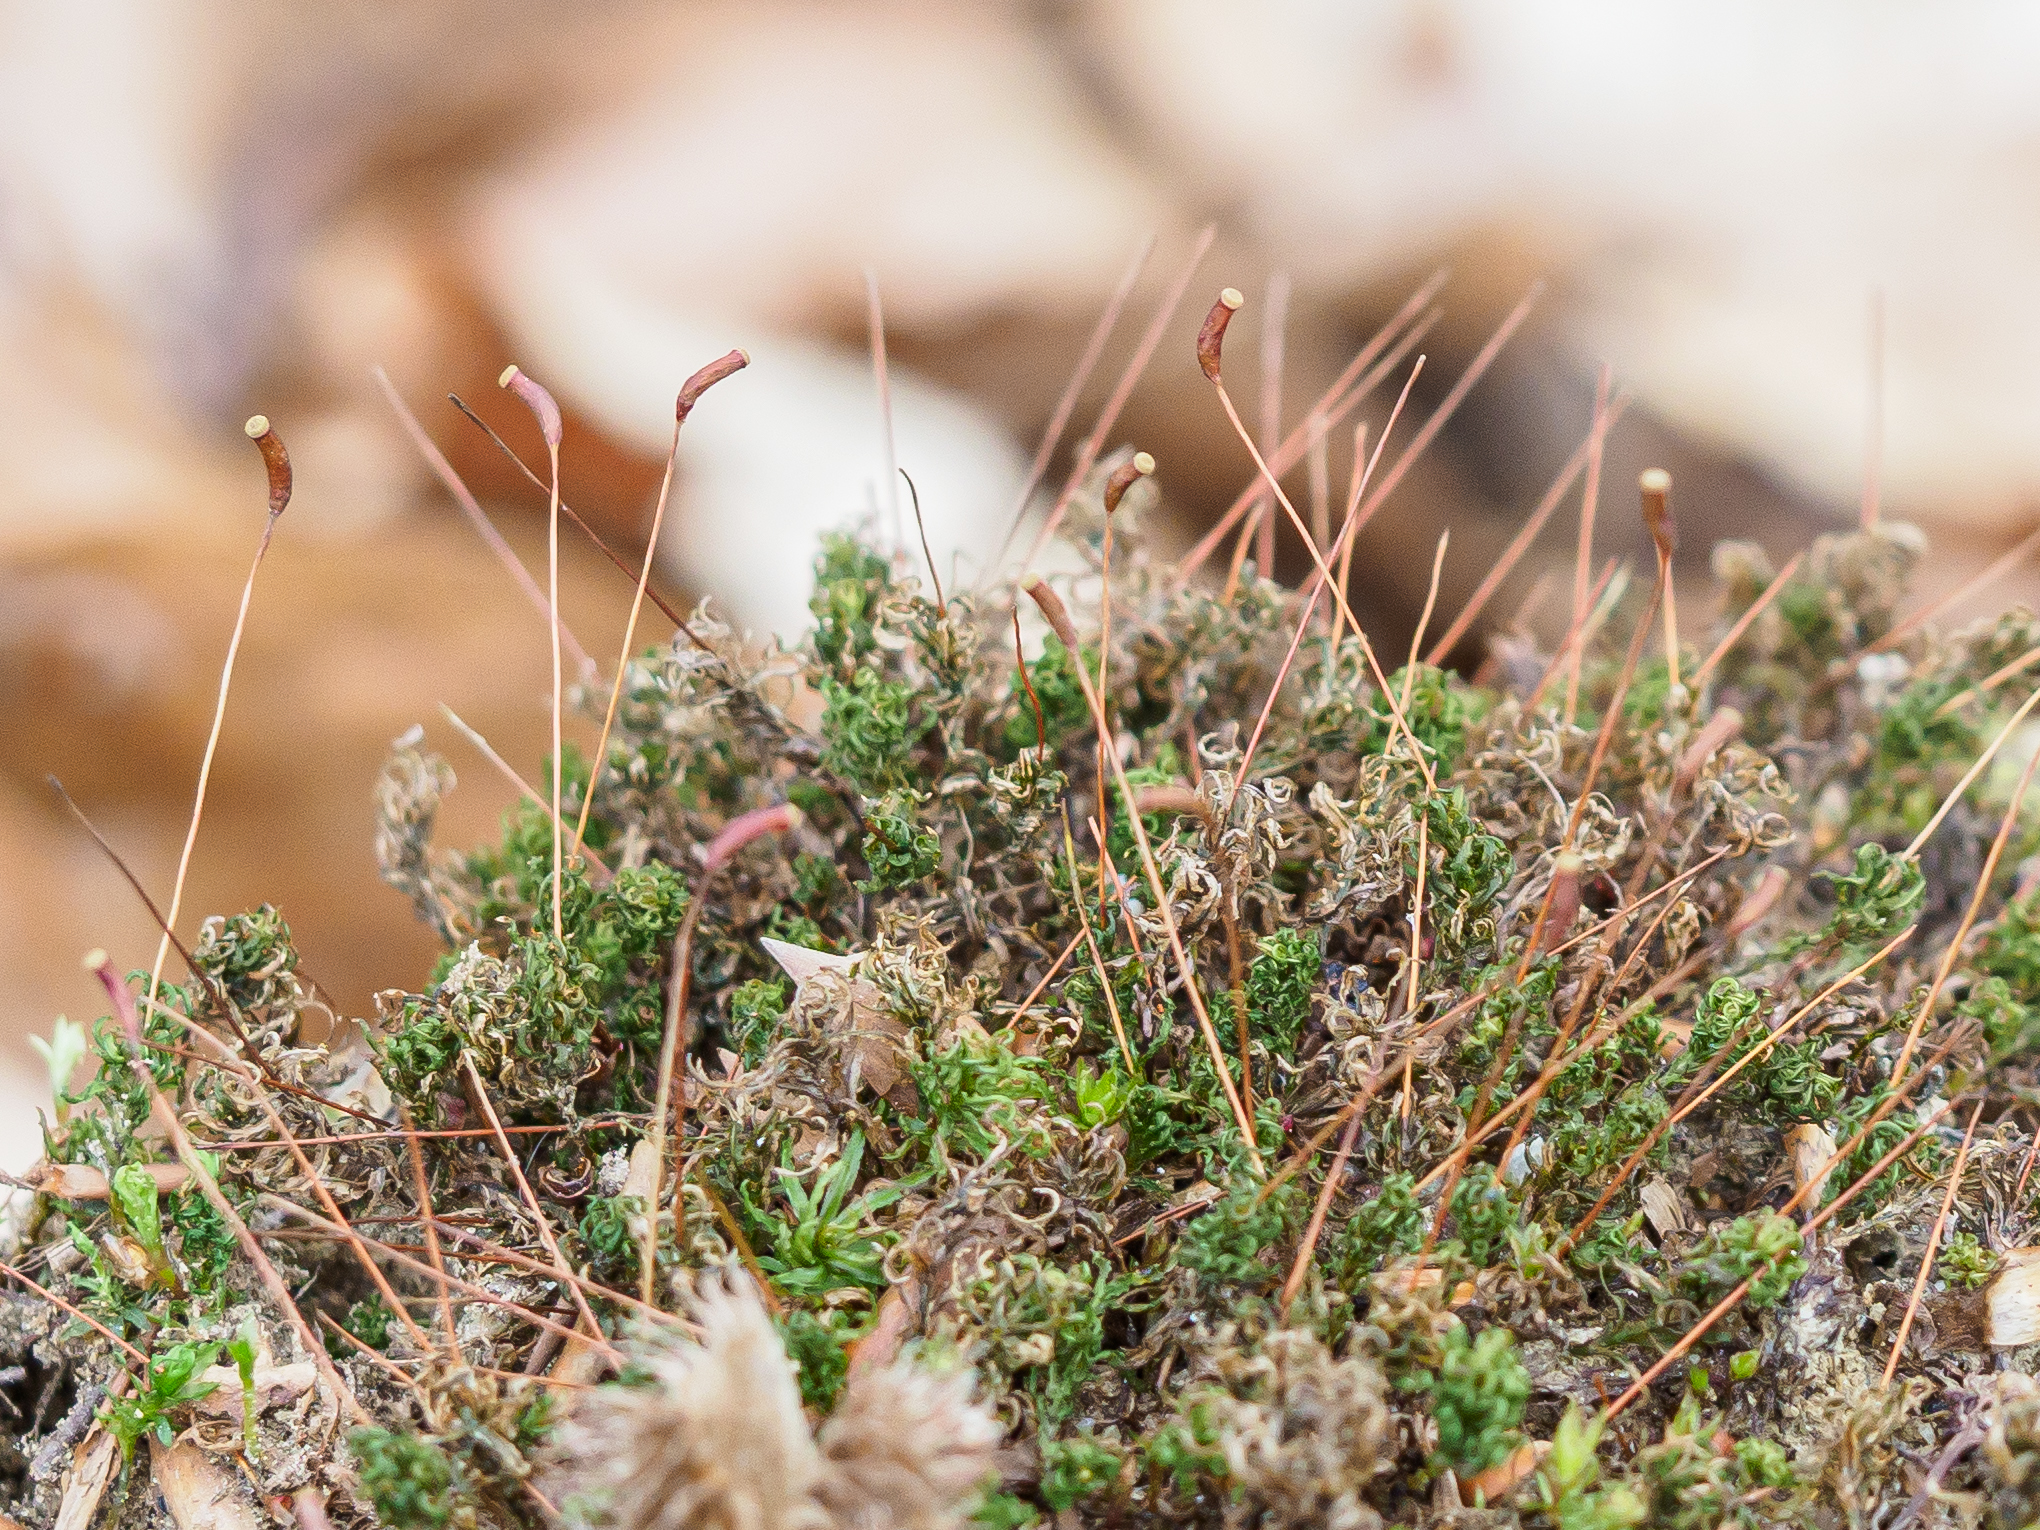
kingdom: Plantae
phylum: Bryophyta
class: Polytrichopsida
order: Polytrichales
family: Polytrichaceae
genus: Atrichum
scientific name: Atrichum undulatum
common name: Common smoothcap
